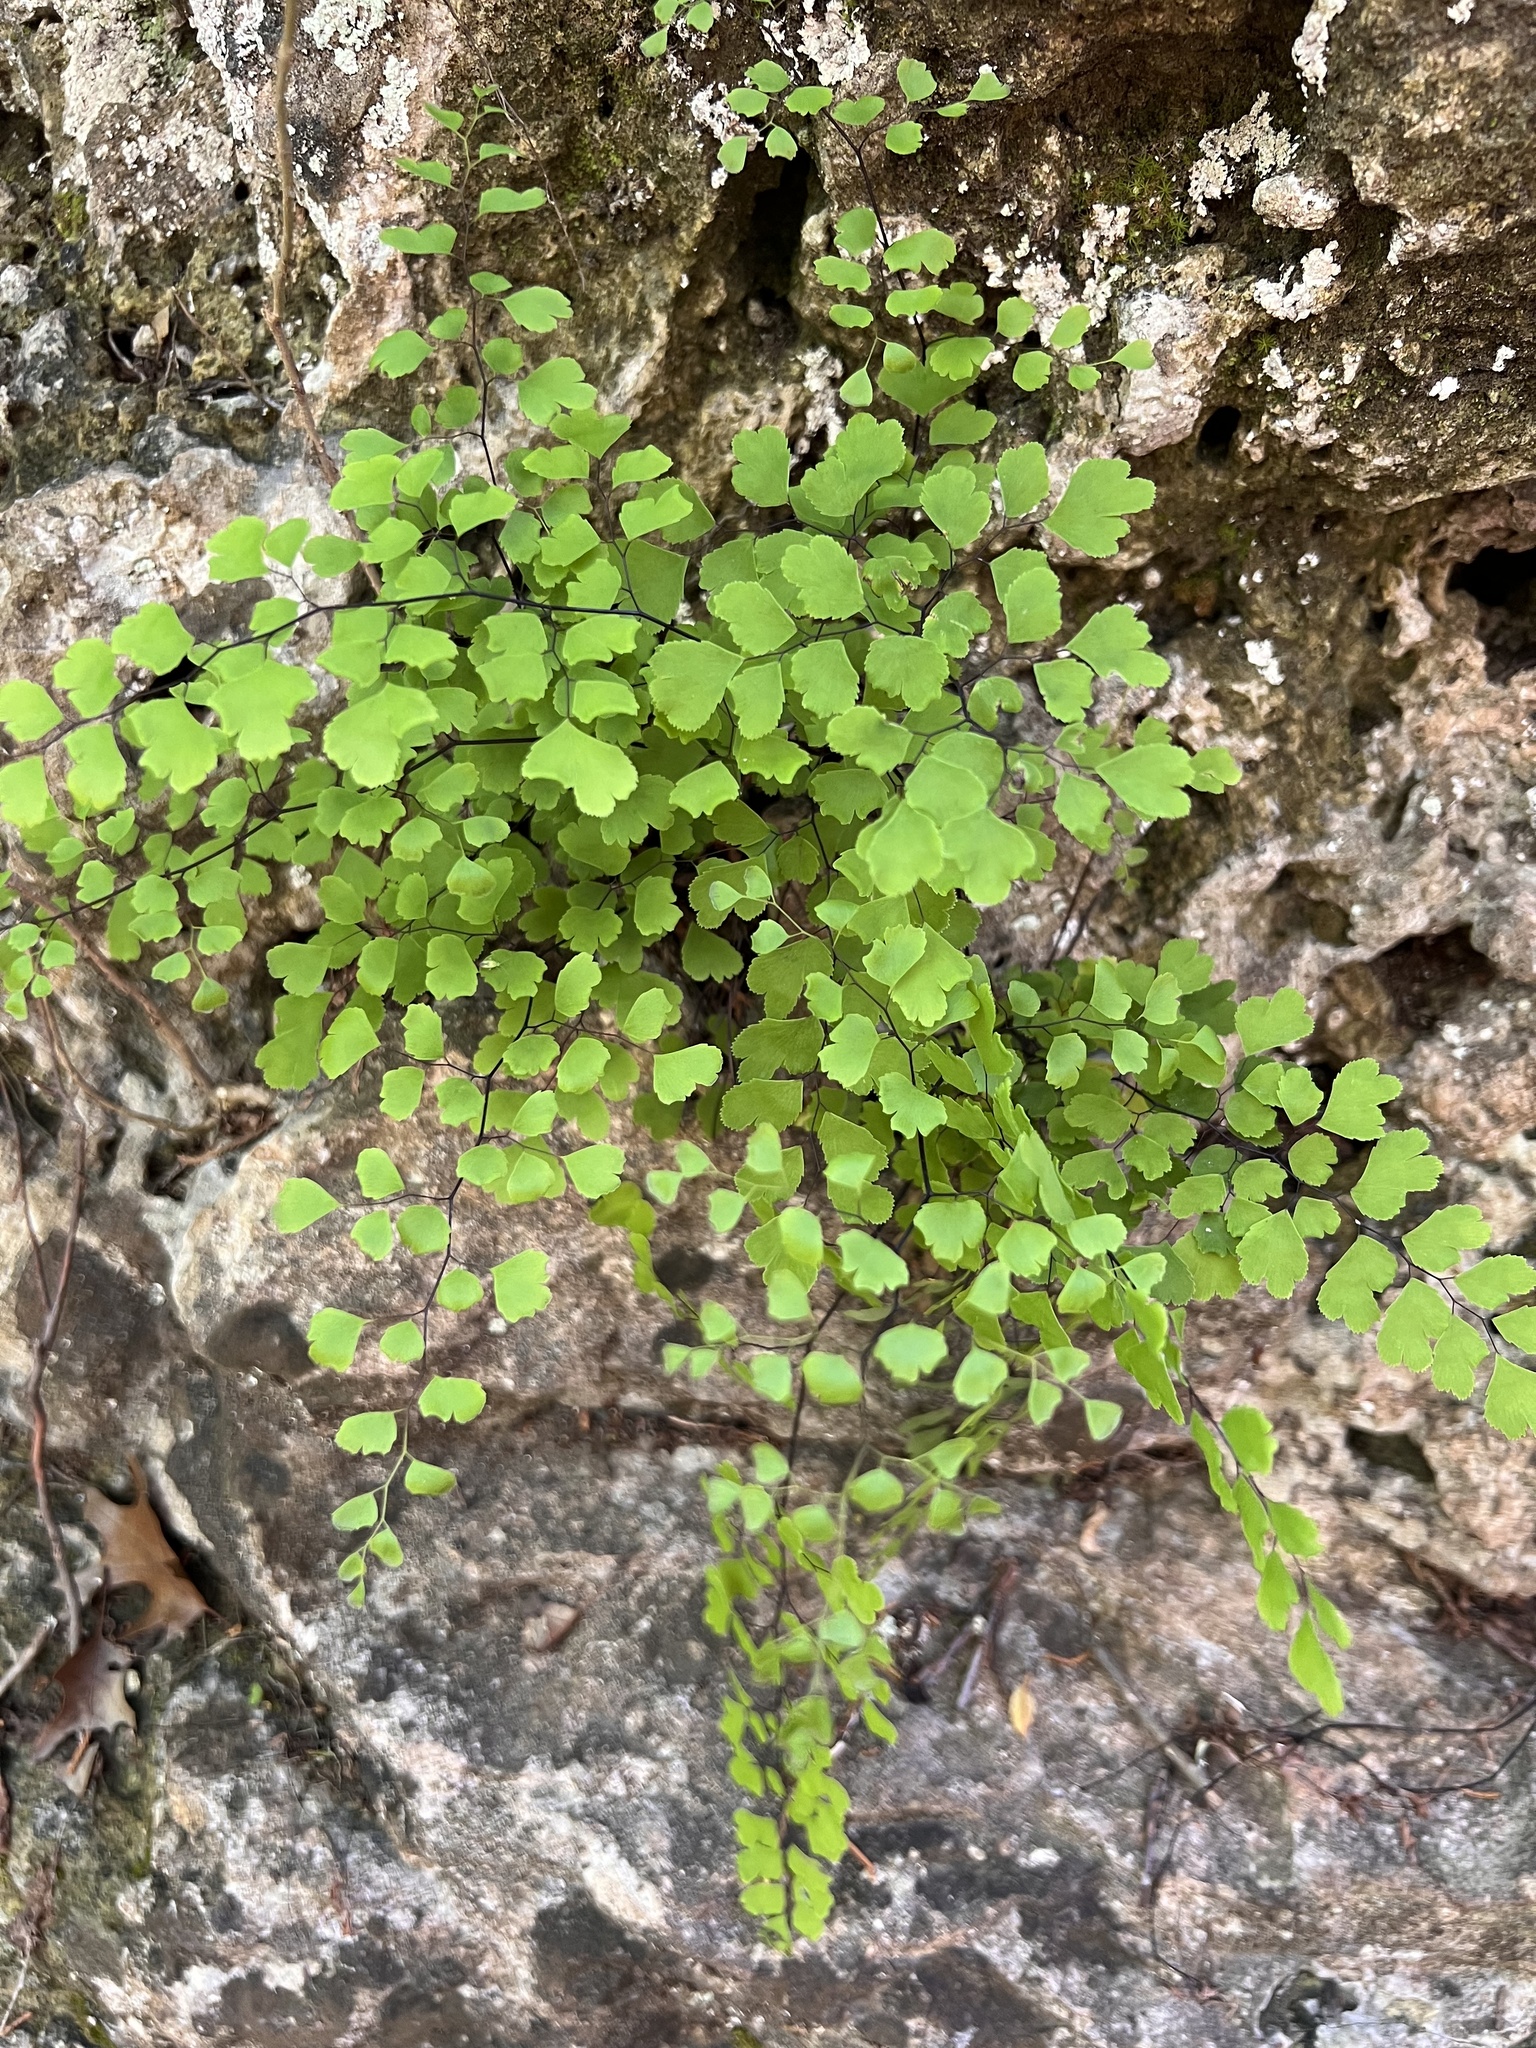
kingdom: Plantae
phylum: Tracheophyta
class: Polypodiopsida
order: Polypodiales
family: Pteridaceae
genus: Adiantum
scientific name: Adiantum capillus-veneris
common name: Maidenhair fern
